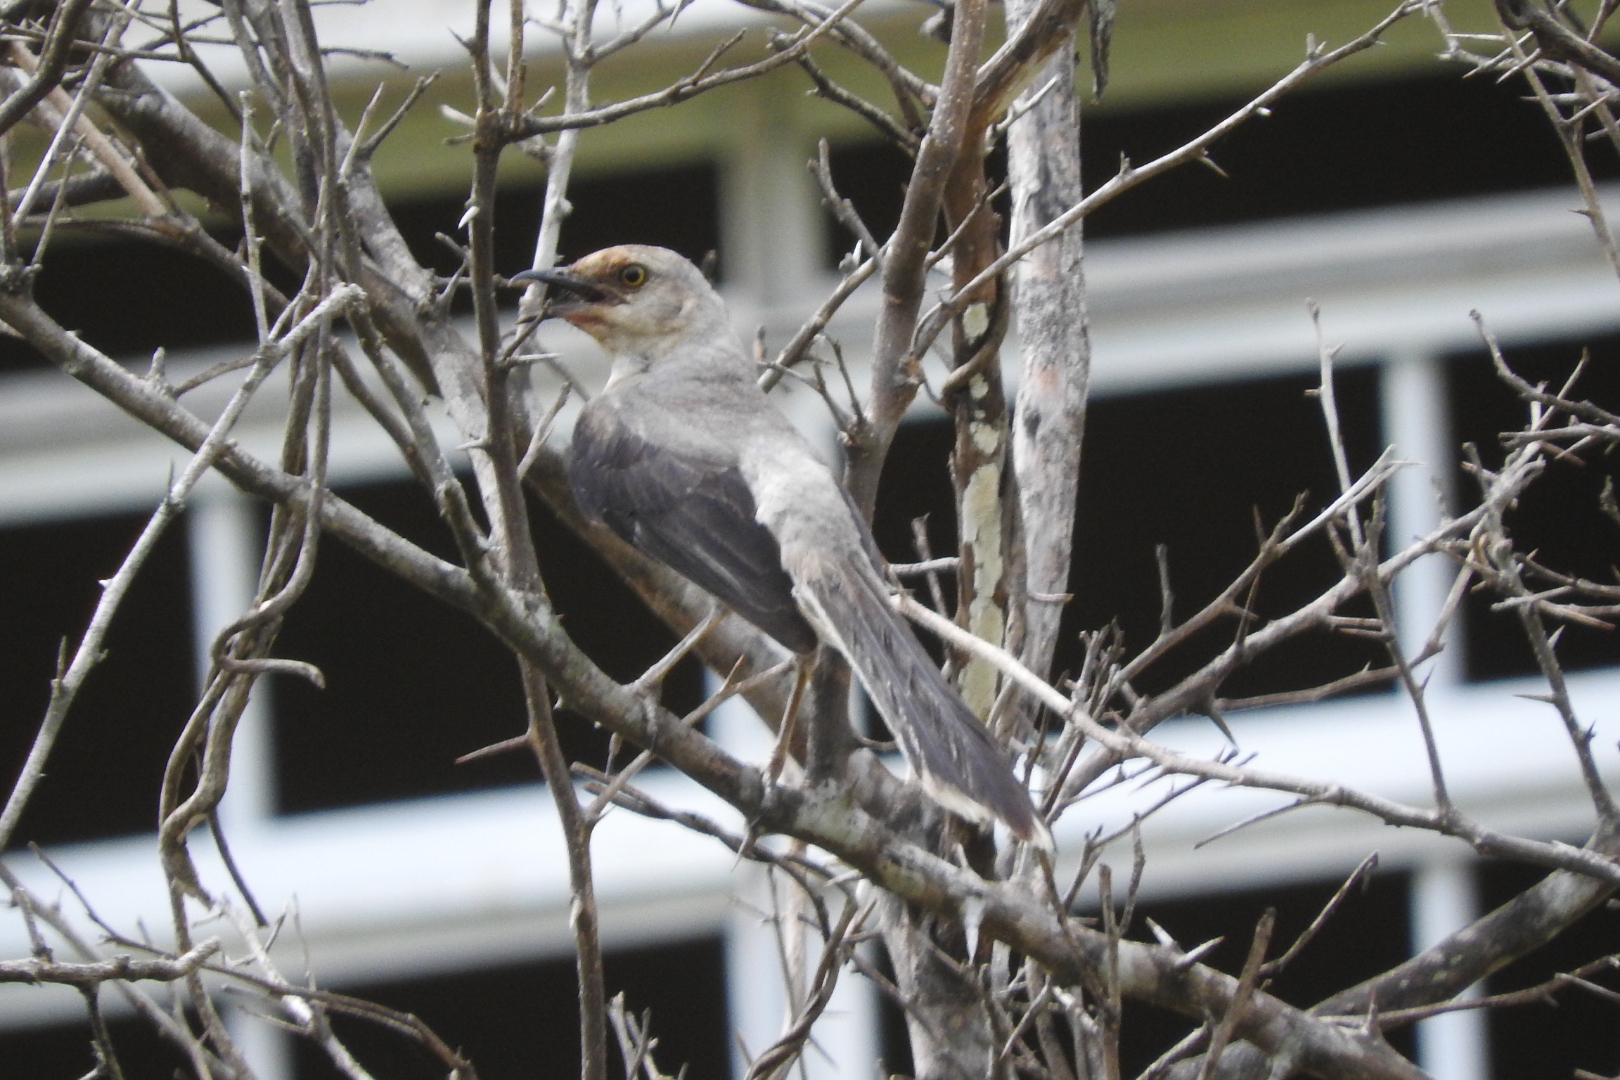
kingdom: Animalia
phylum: Chordata
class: Aves
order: Passeriformes
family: Mimidae
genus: Mimus
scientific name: Mimus gilvus
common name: Tropical mockingbird
